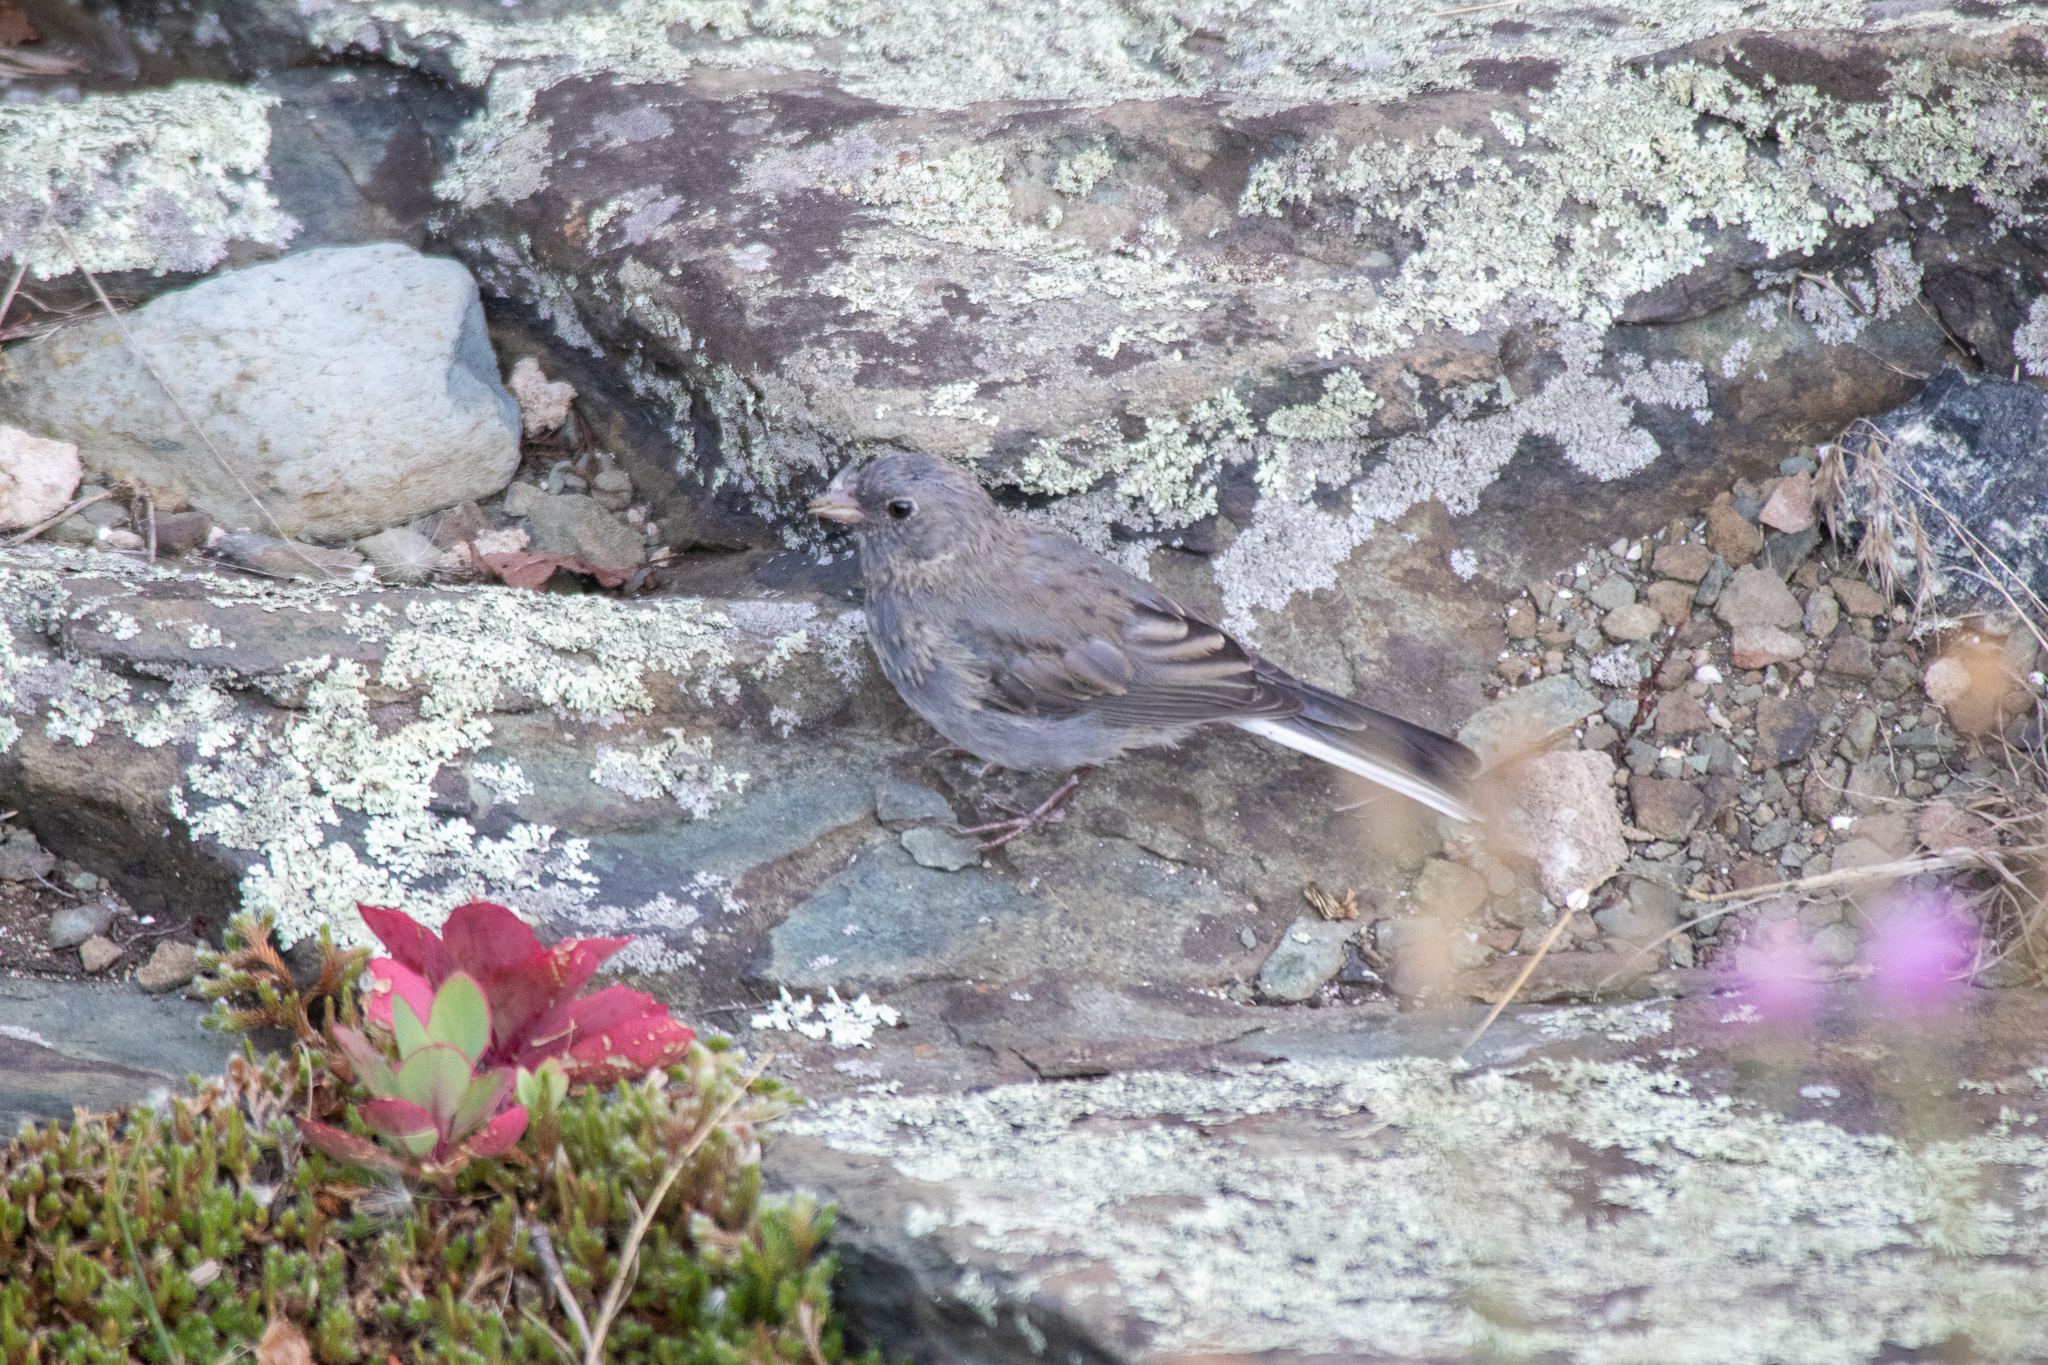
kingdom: Animalia
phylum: Chordata
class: Aves
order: Passeriformes
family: Passerellidae
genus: Junco
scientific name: Junco hyemalis
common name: Dark-eyed junco
